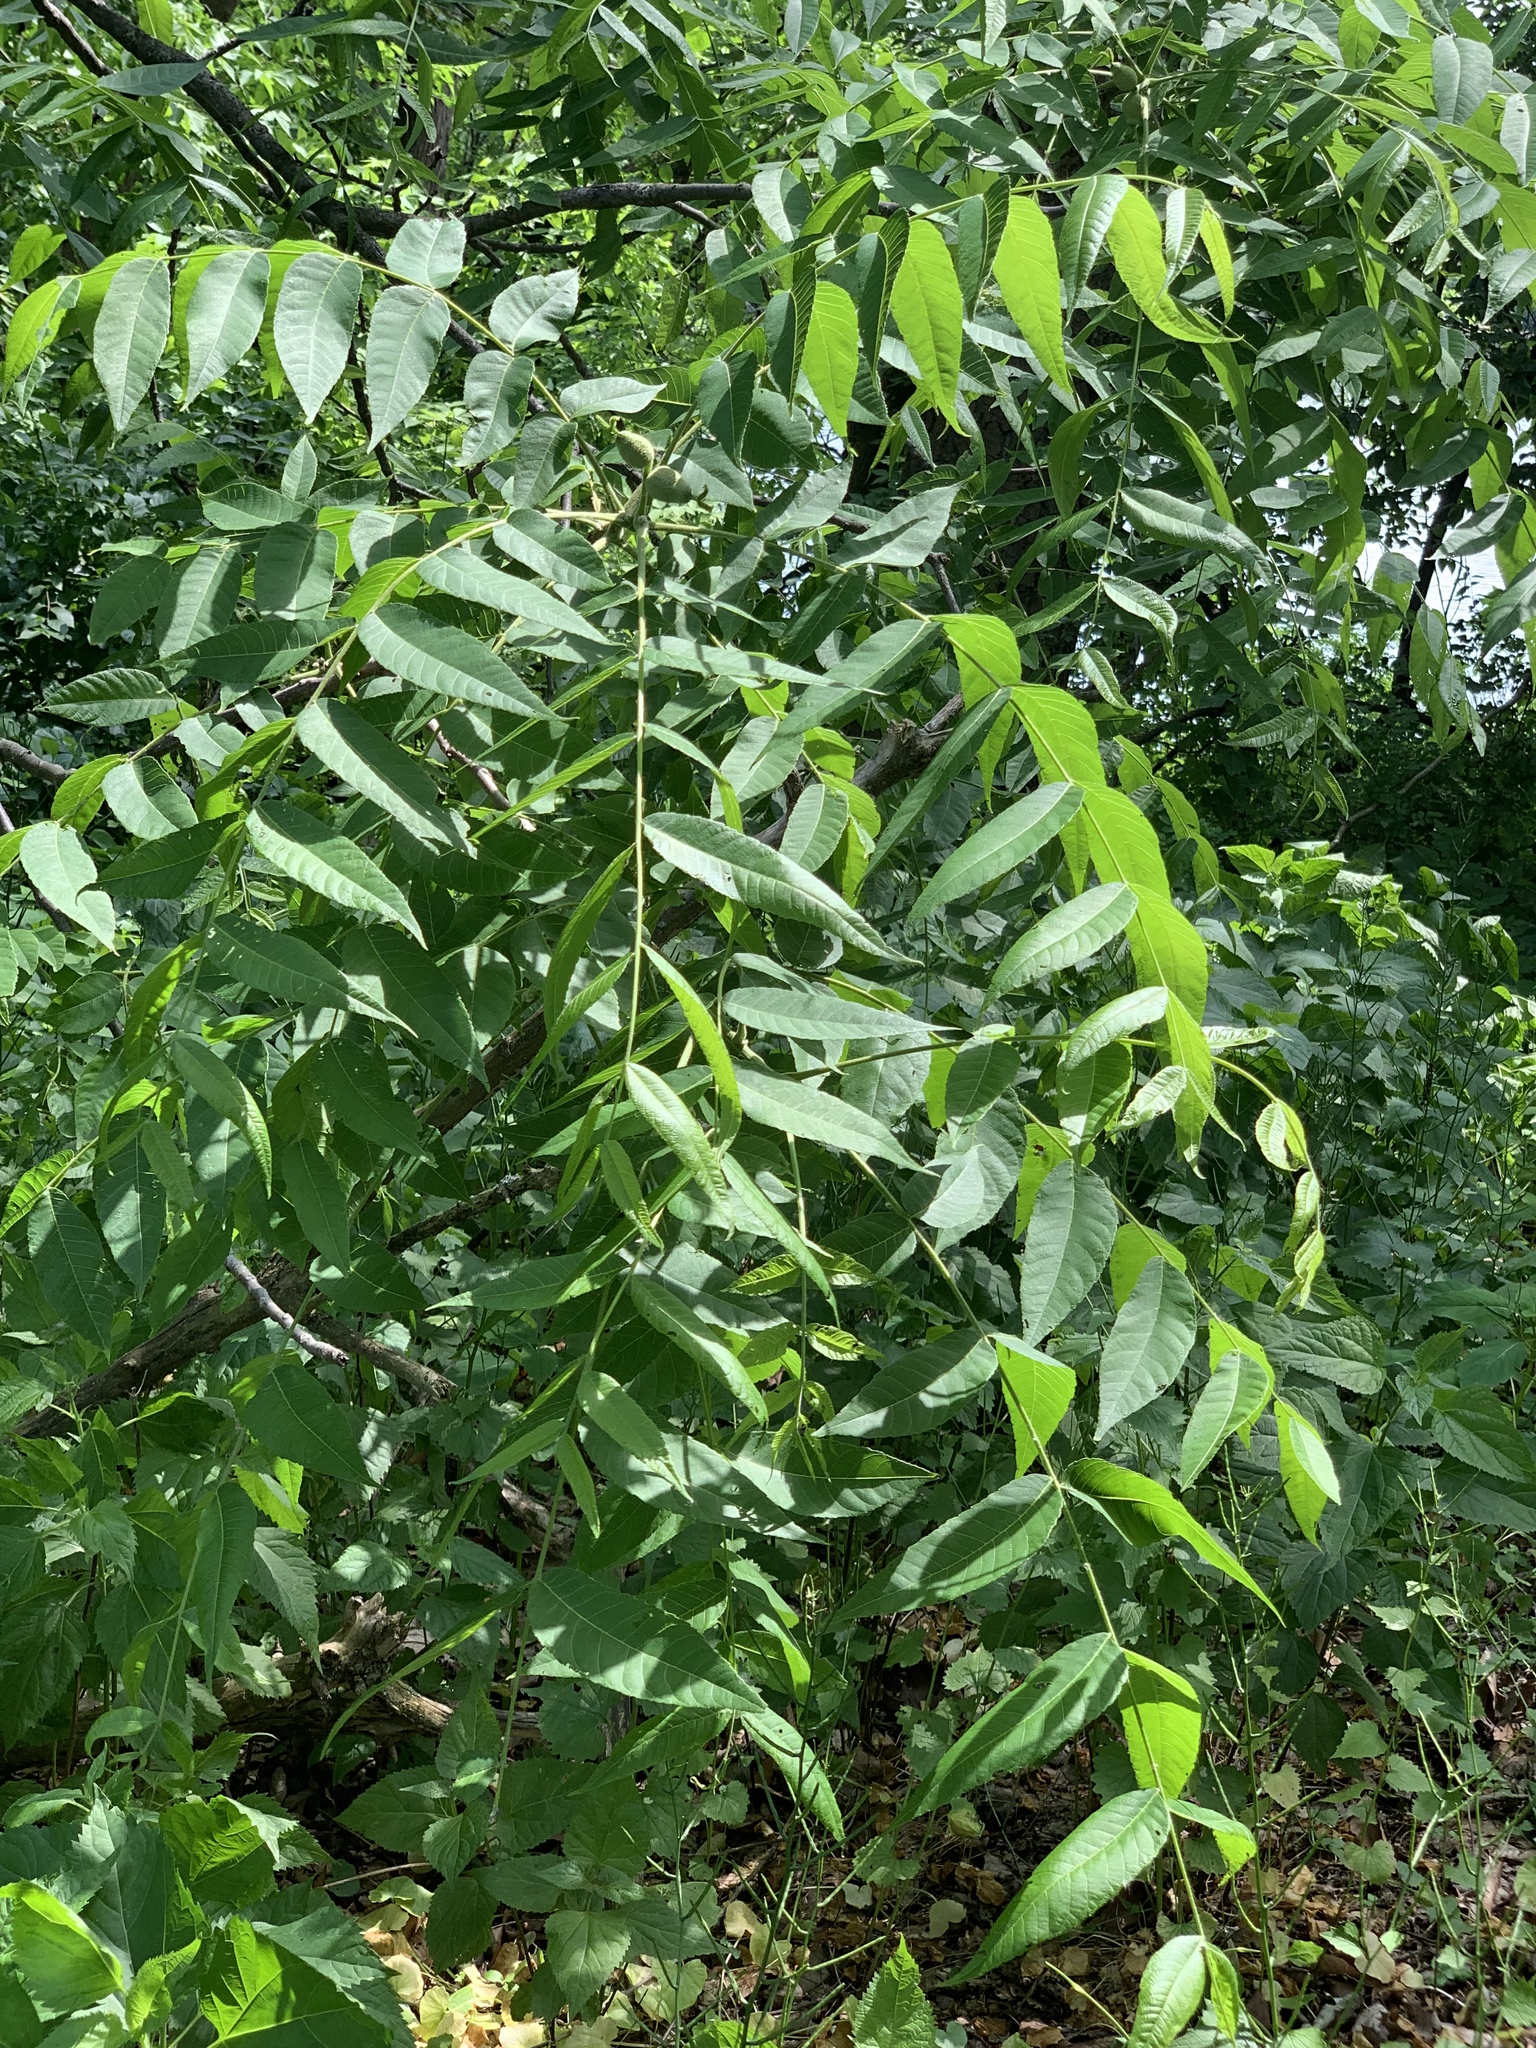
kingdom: Plantae
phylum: Tracheophyta
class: Magnoliopsida
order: Fagales
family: Juglandaceae
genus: Juglans
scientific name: Juglans nigra
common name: Black walnut
